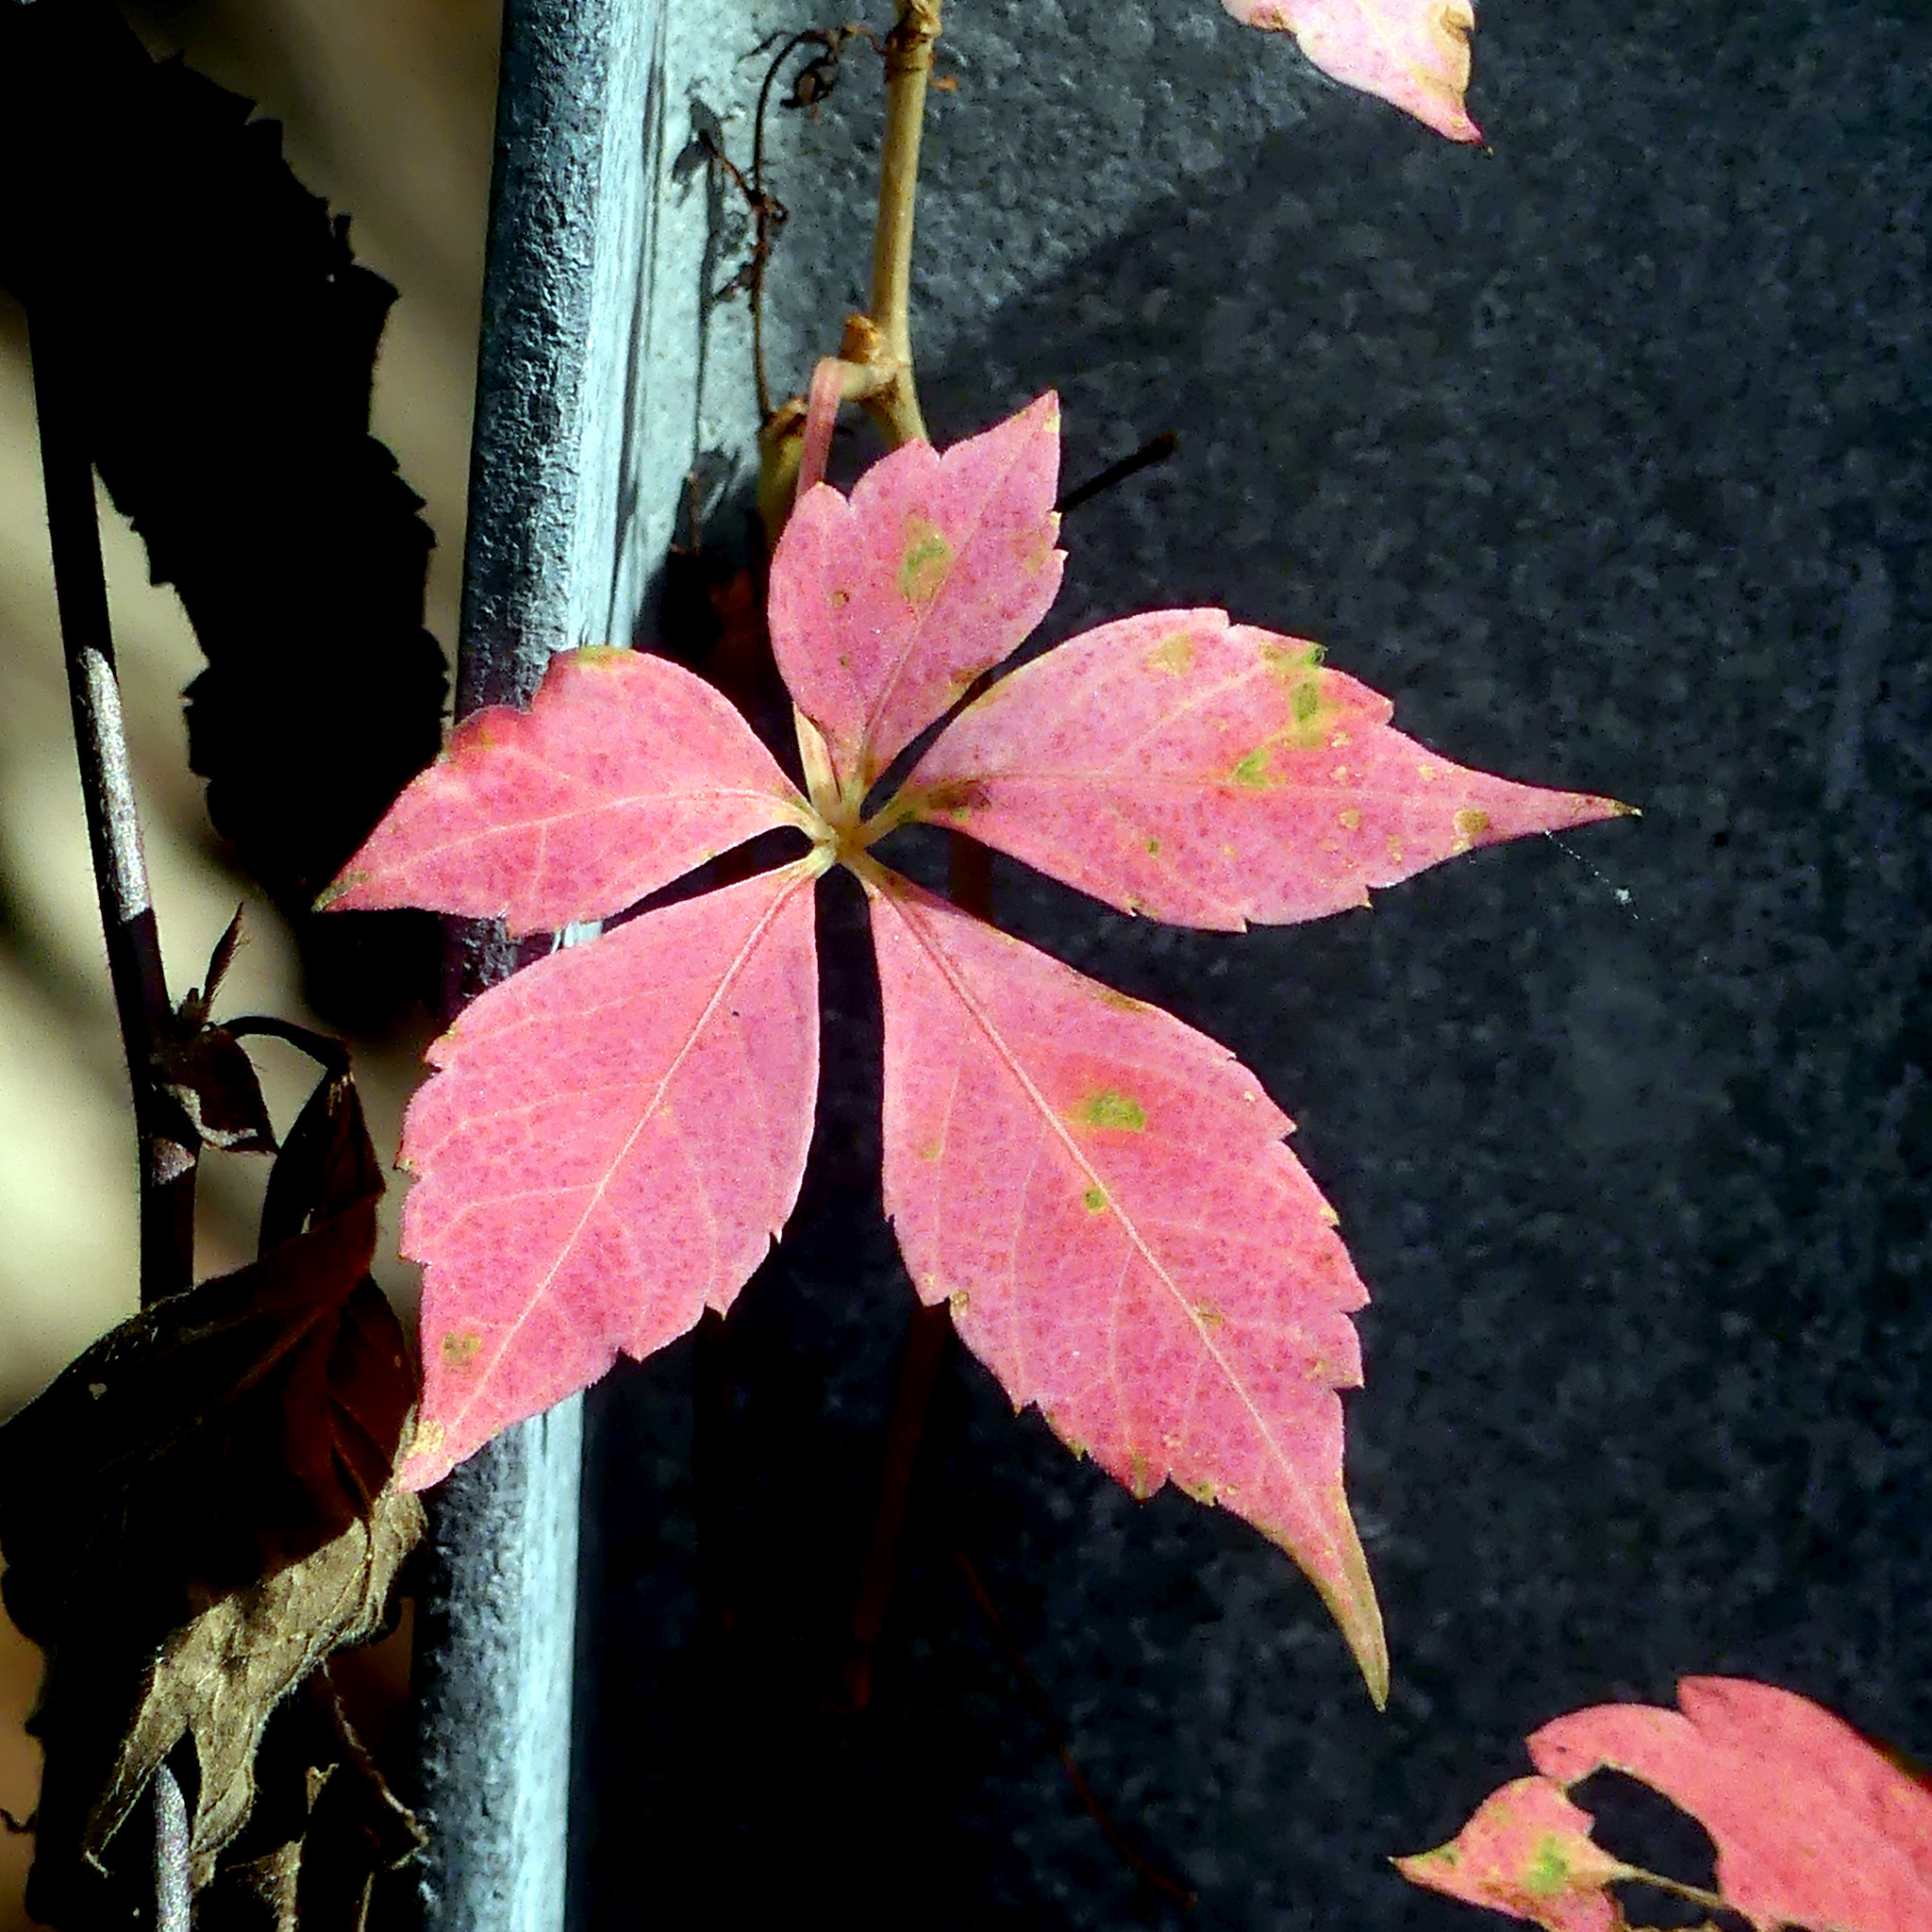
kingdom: Plantae
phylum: Tracheophyta
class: Magnoliopsida
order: Vitales
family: Vitaceae
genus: Parthenocissus
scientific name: Parthenocissus quinquefolia
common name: Virginia-creeper
